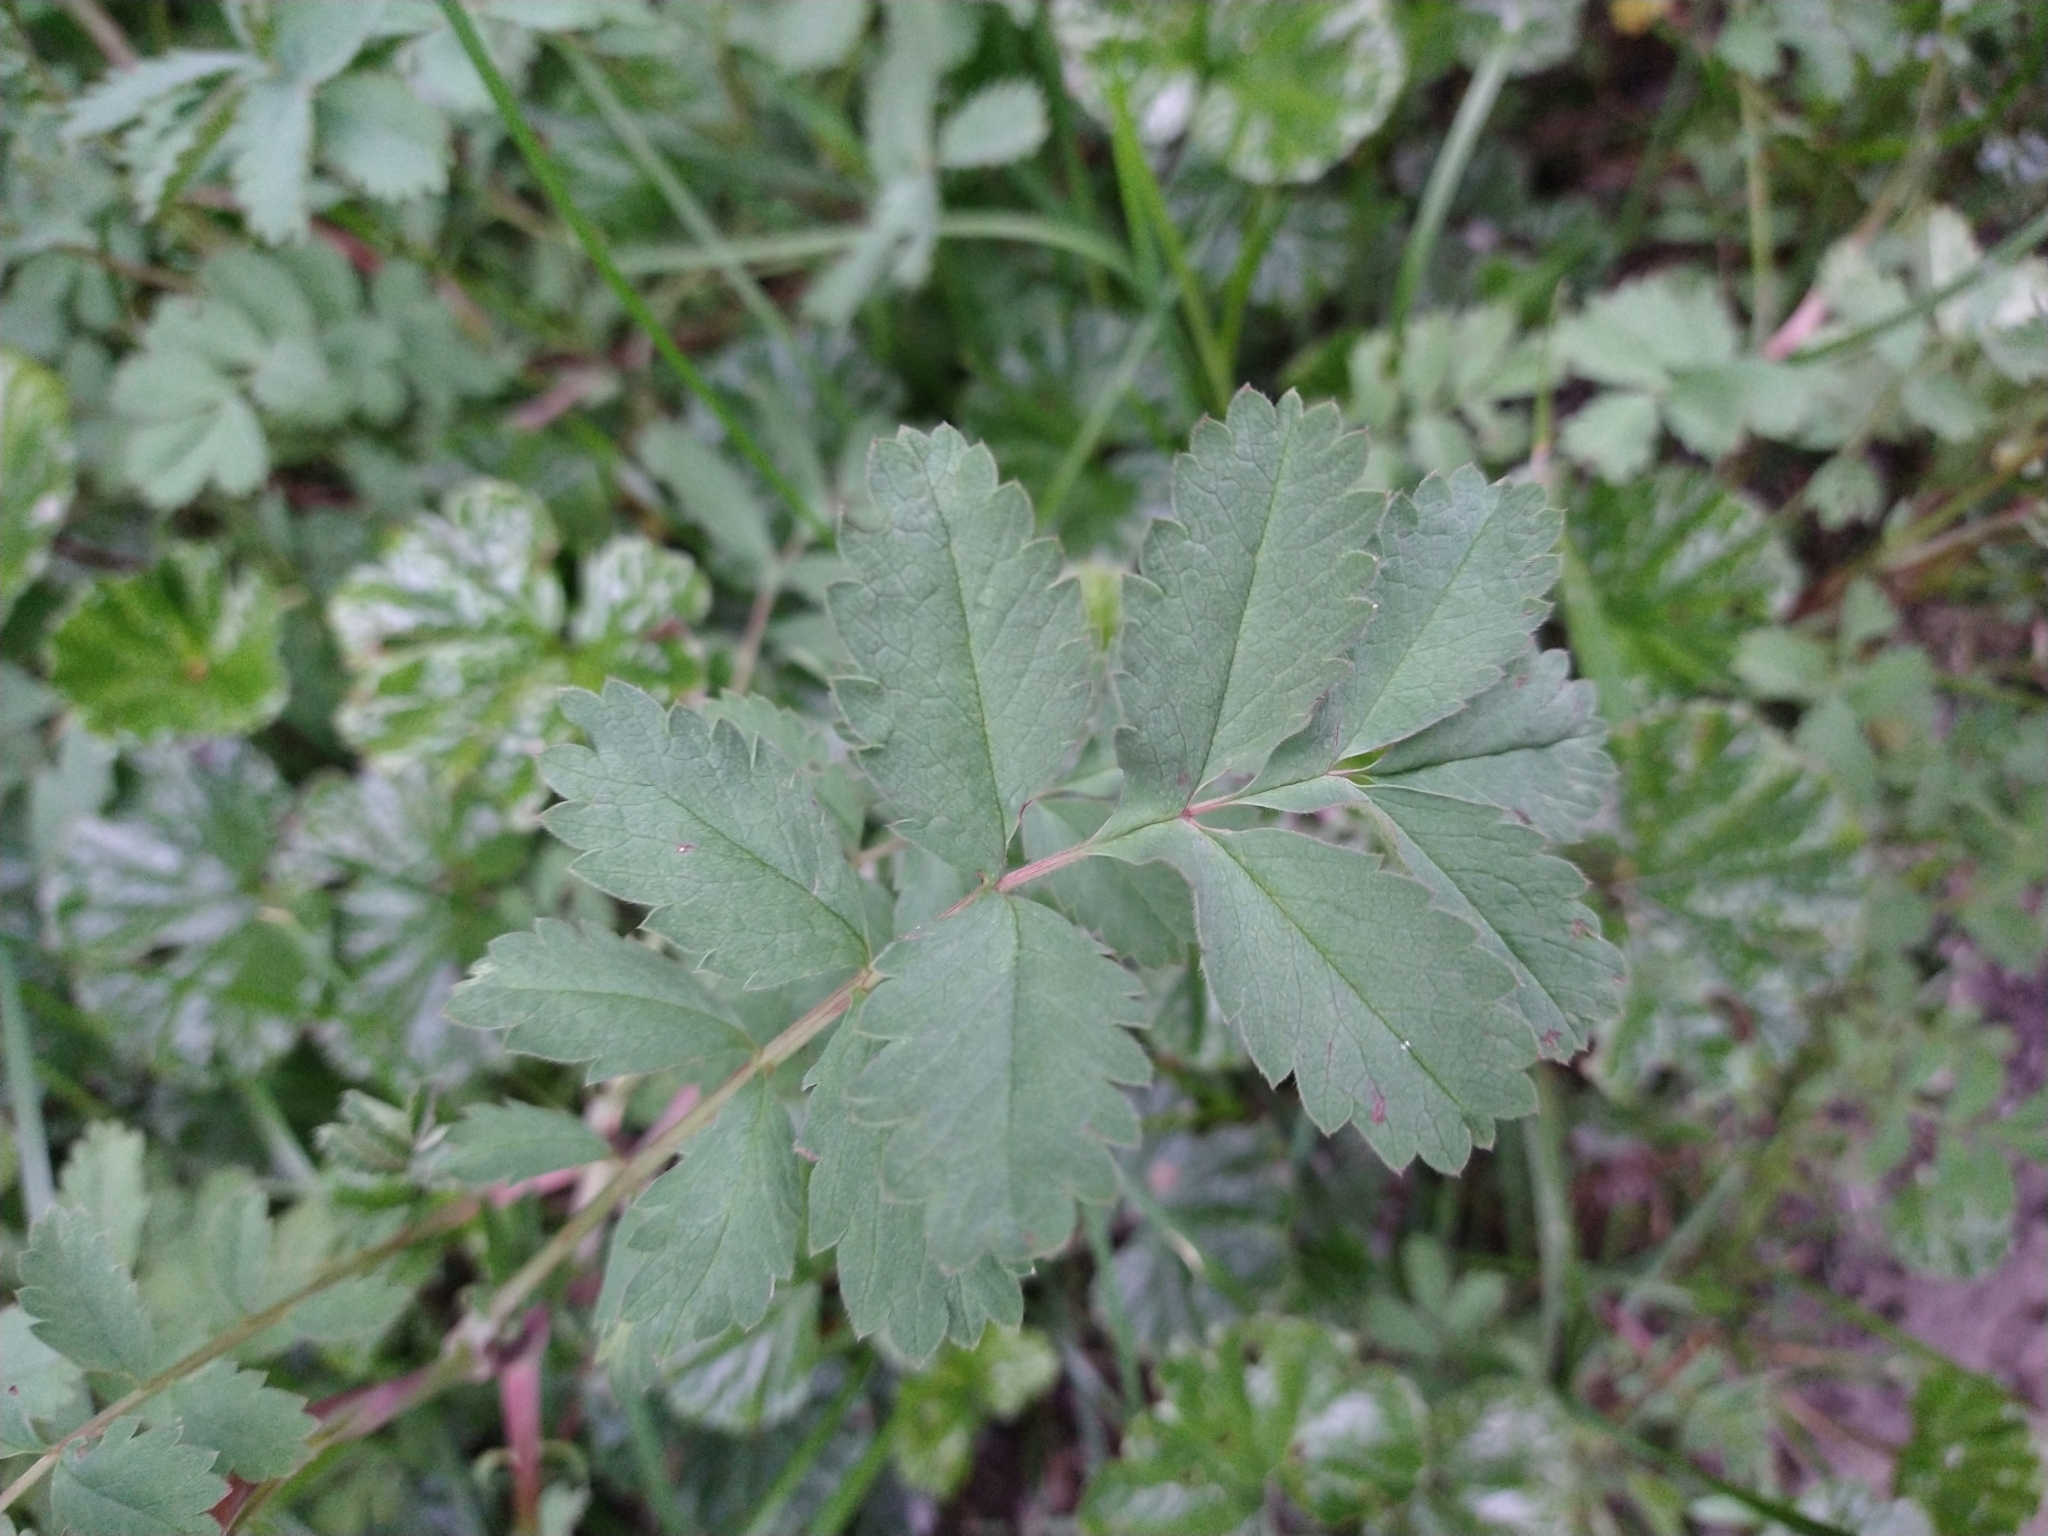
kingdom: Plantae
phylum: Tracheophyta
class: Magnoliopsida
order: Rosales
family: Rosaceae
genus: Acaena
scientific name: Acaena magellanica
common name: New zealand burr
